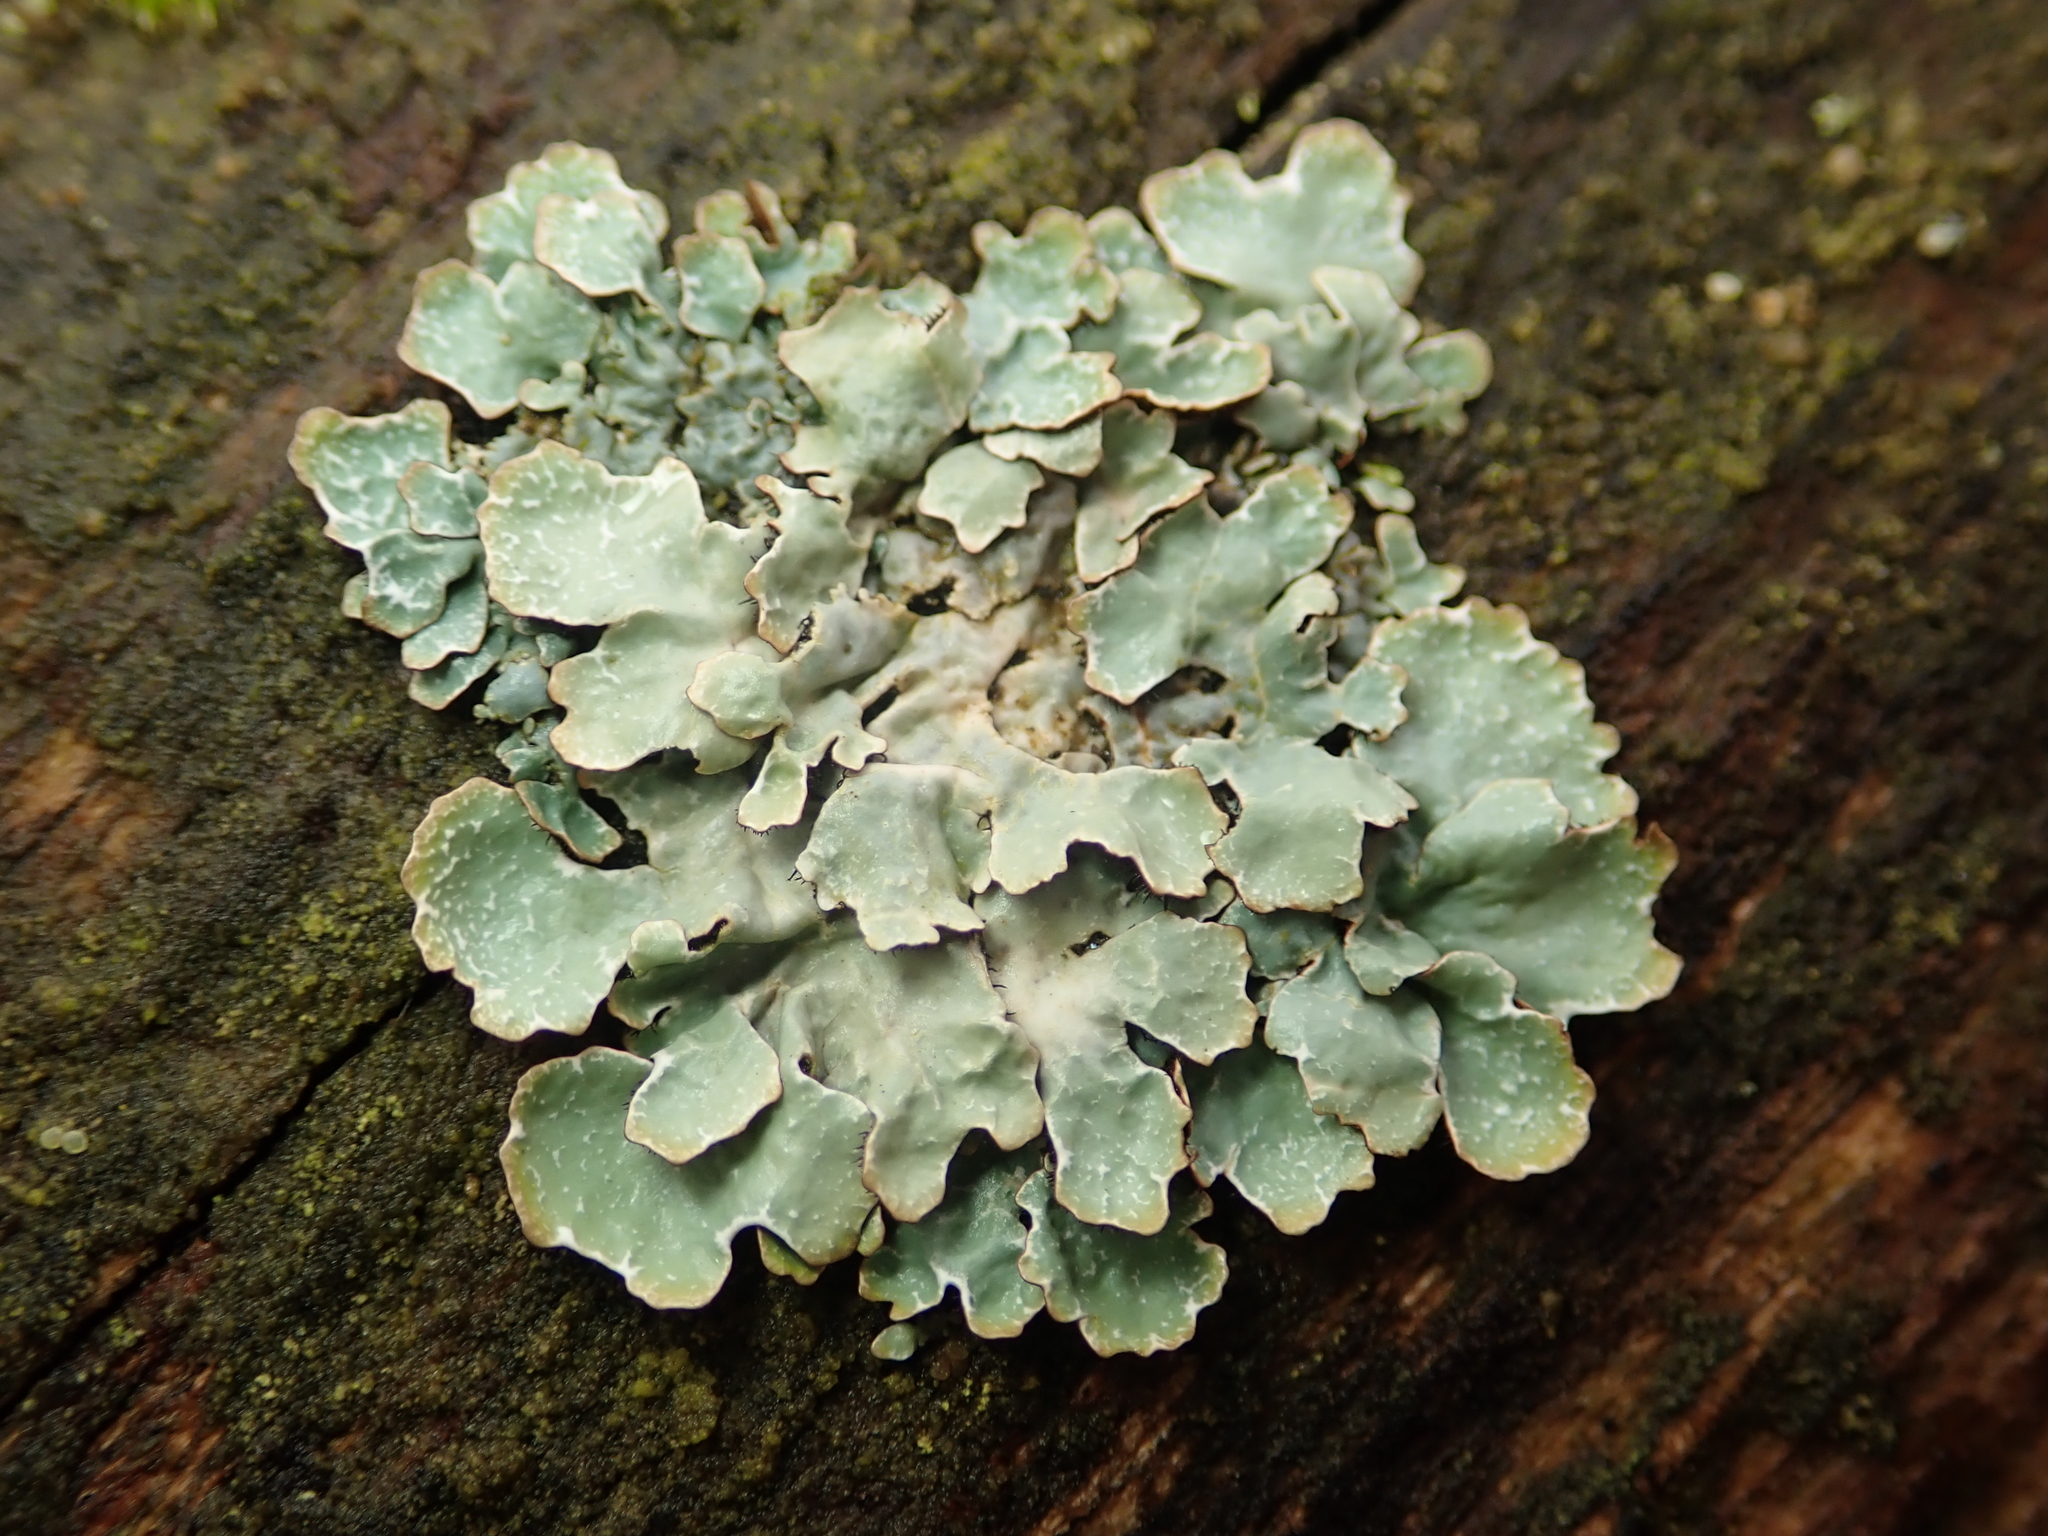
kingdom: Fungi
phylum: Ascomycota
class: Lecanoromycetes
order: Lecanorales
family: Parmeliaceae
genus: Parmelia
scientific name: Parmelia sulcata
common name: Netted shield lichen
